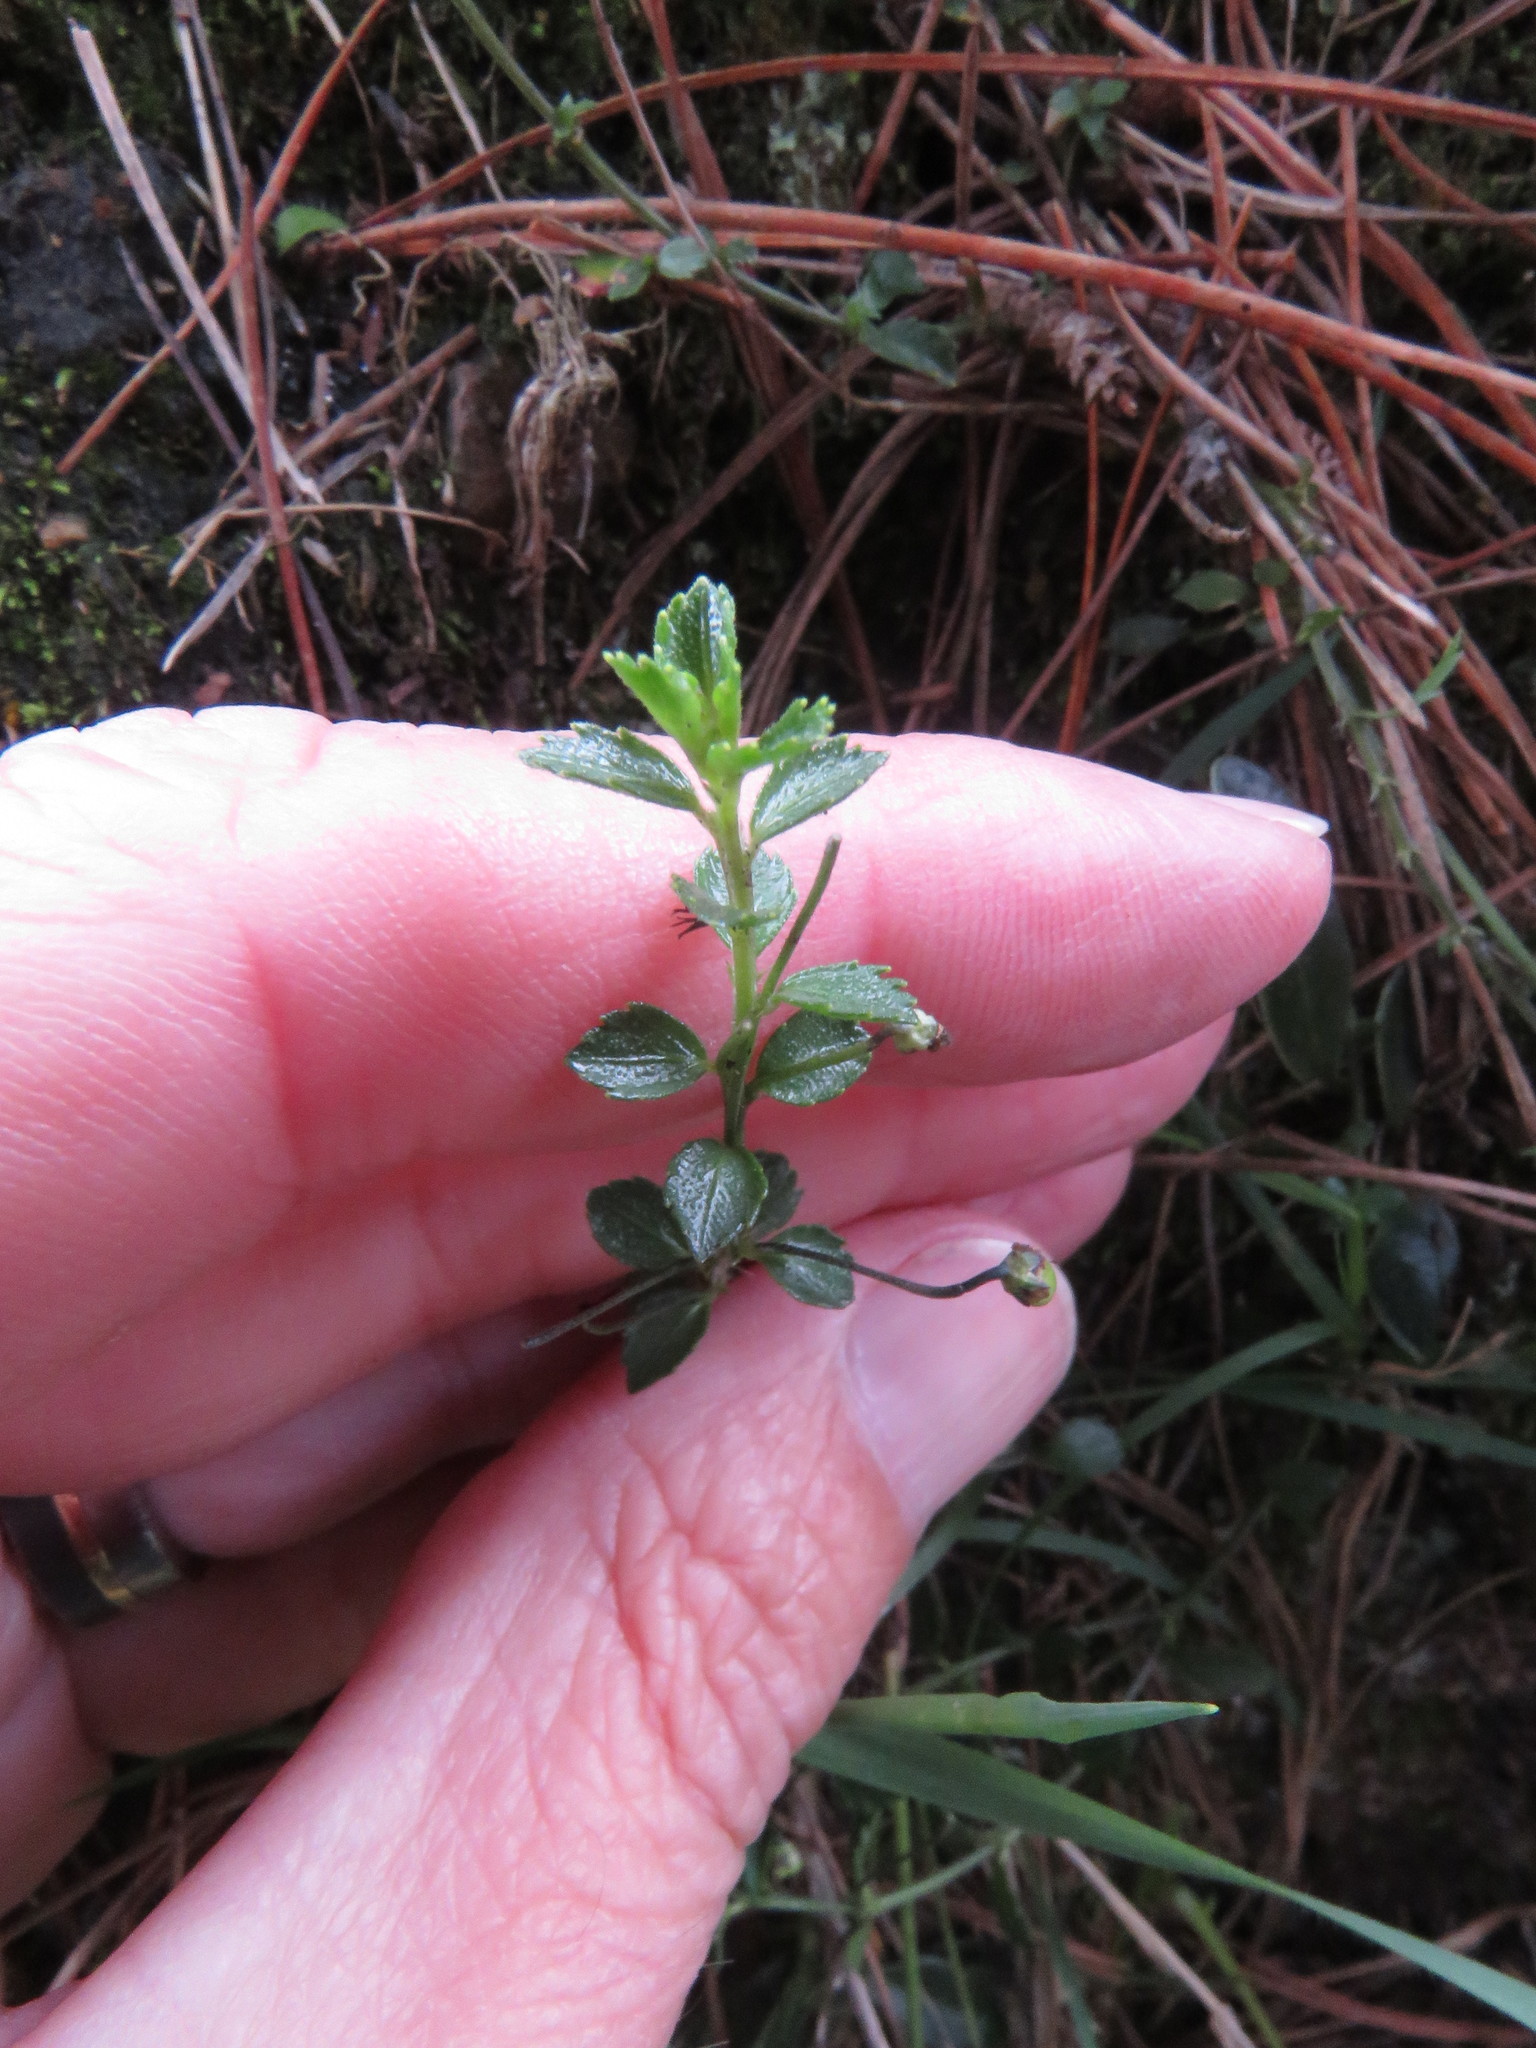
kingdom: Plantae
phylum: Tracheophyta
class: Magnoliopsida
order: Malpighiales
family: Violaceae
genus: Pombalia
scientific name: Pombalia parviflora
